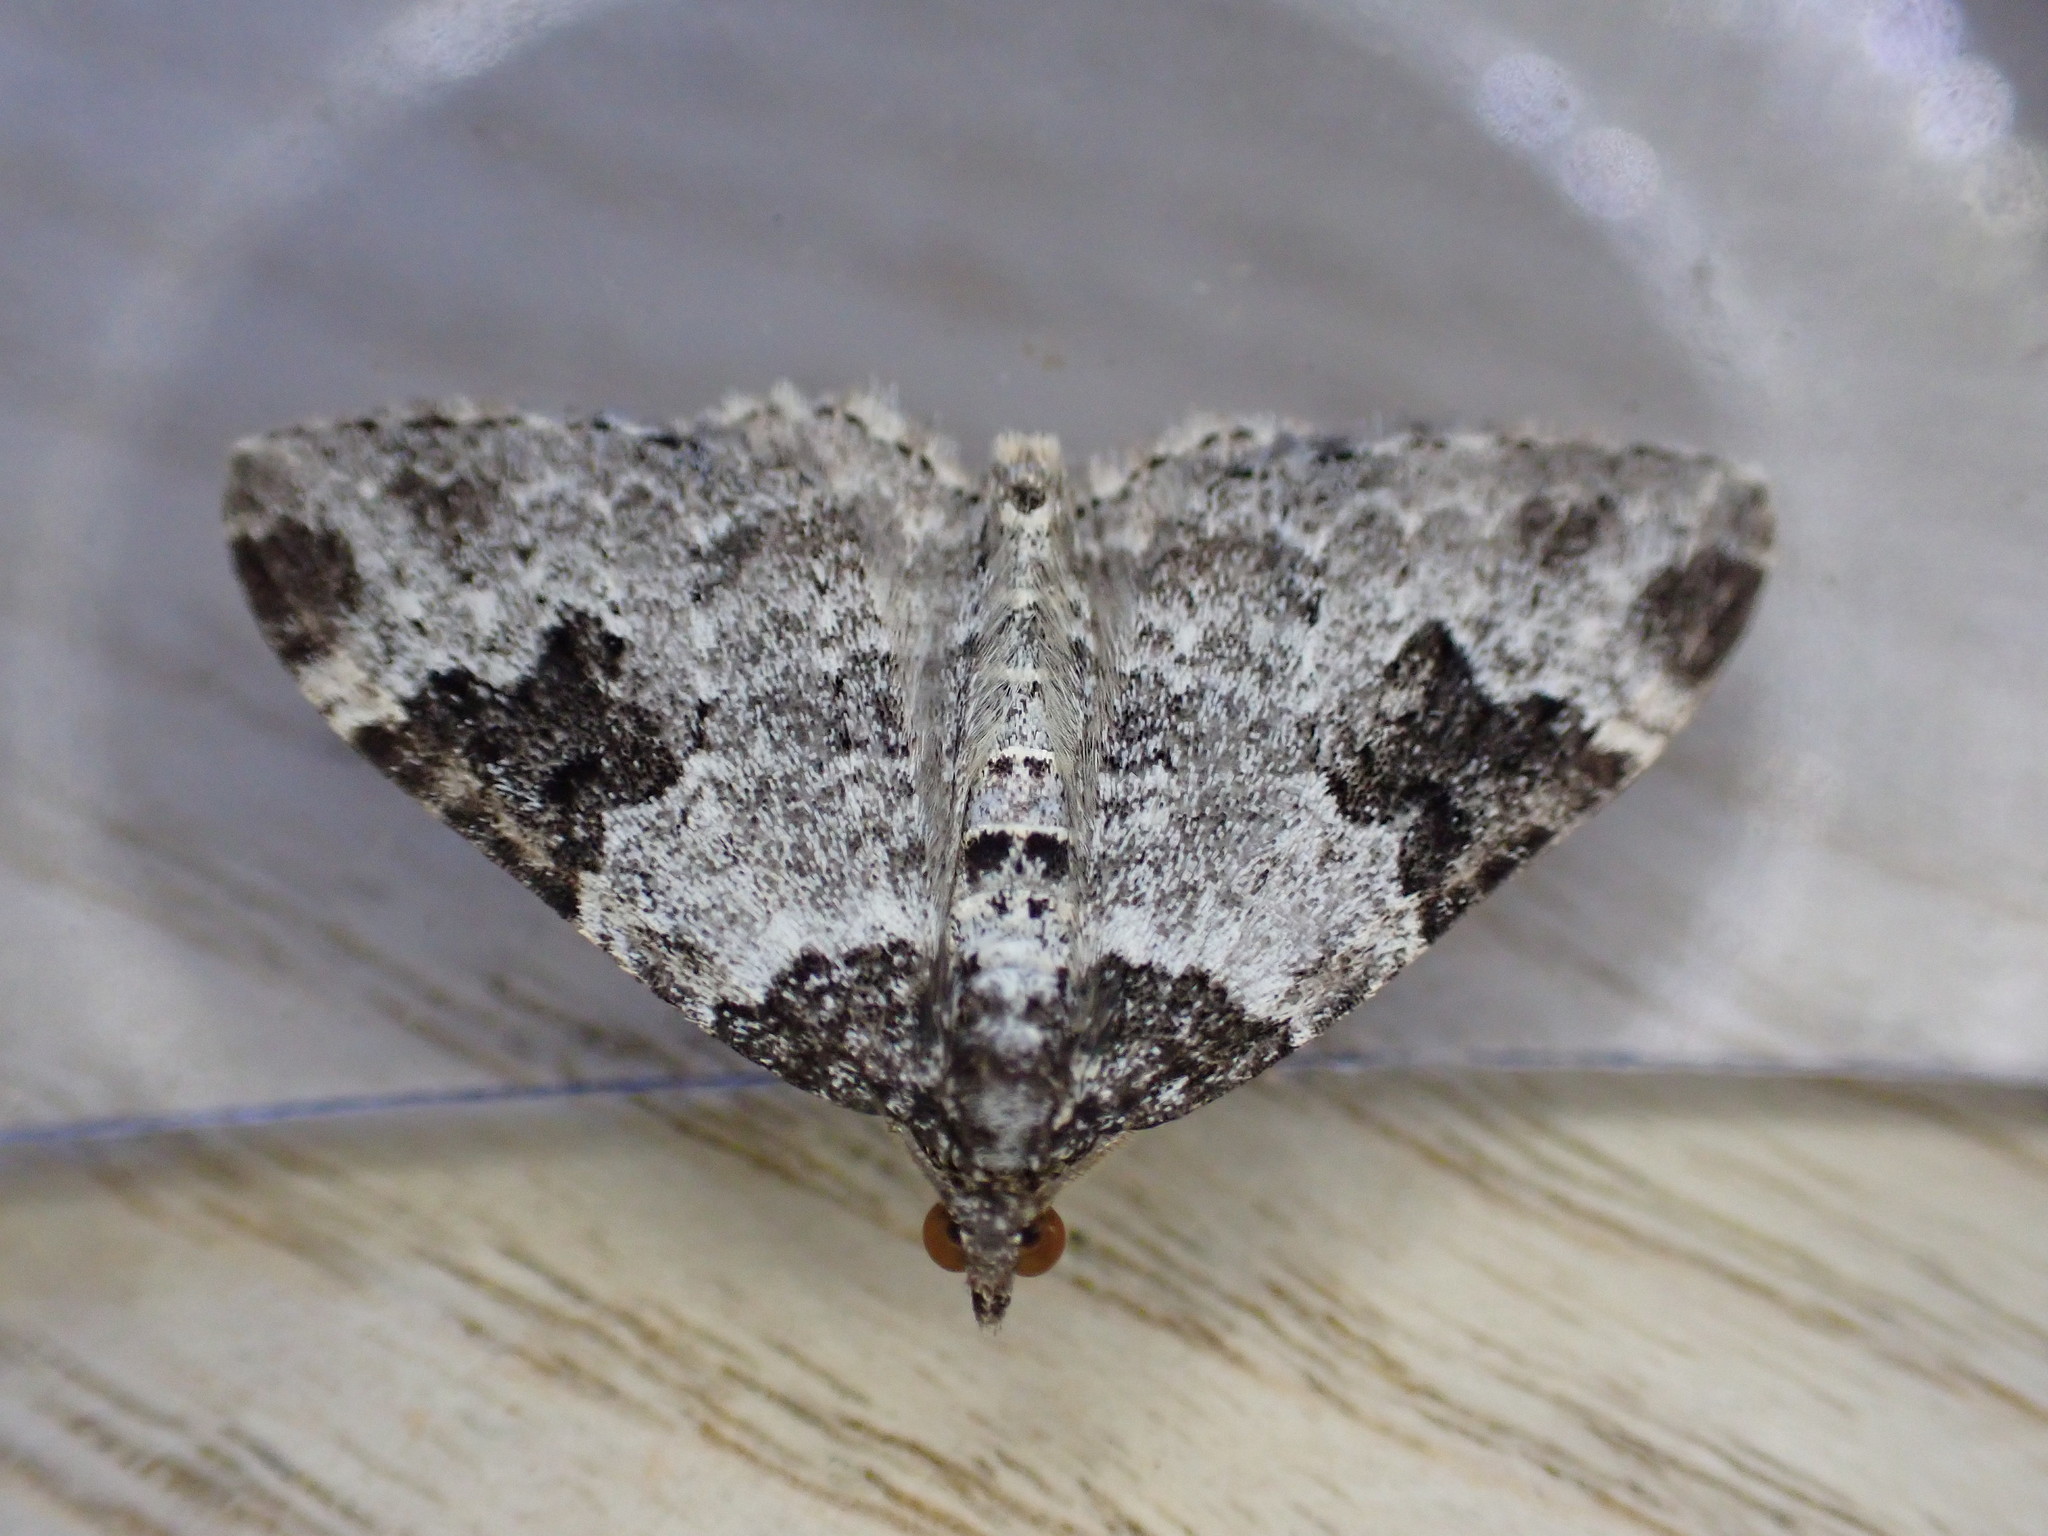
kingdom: Animalia
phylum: Arthropoda
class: Insecta
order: Lepidoptera
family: Geometridae
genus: Xanthorhoe
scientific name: Xanthorhoe fluctuata
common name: Garden carpet
